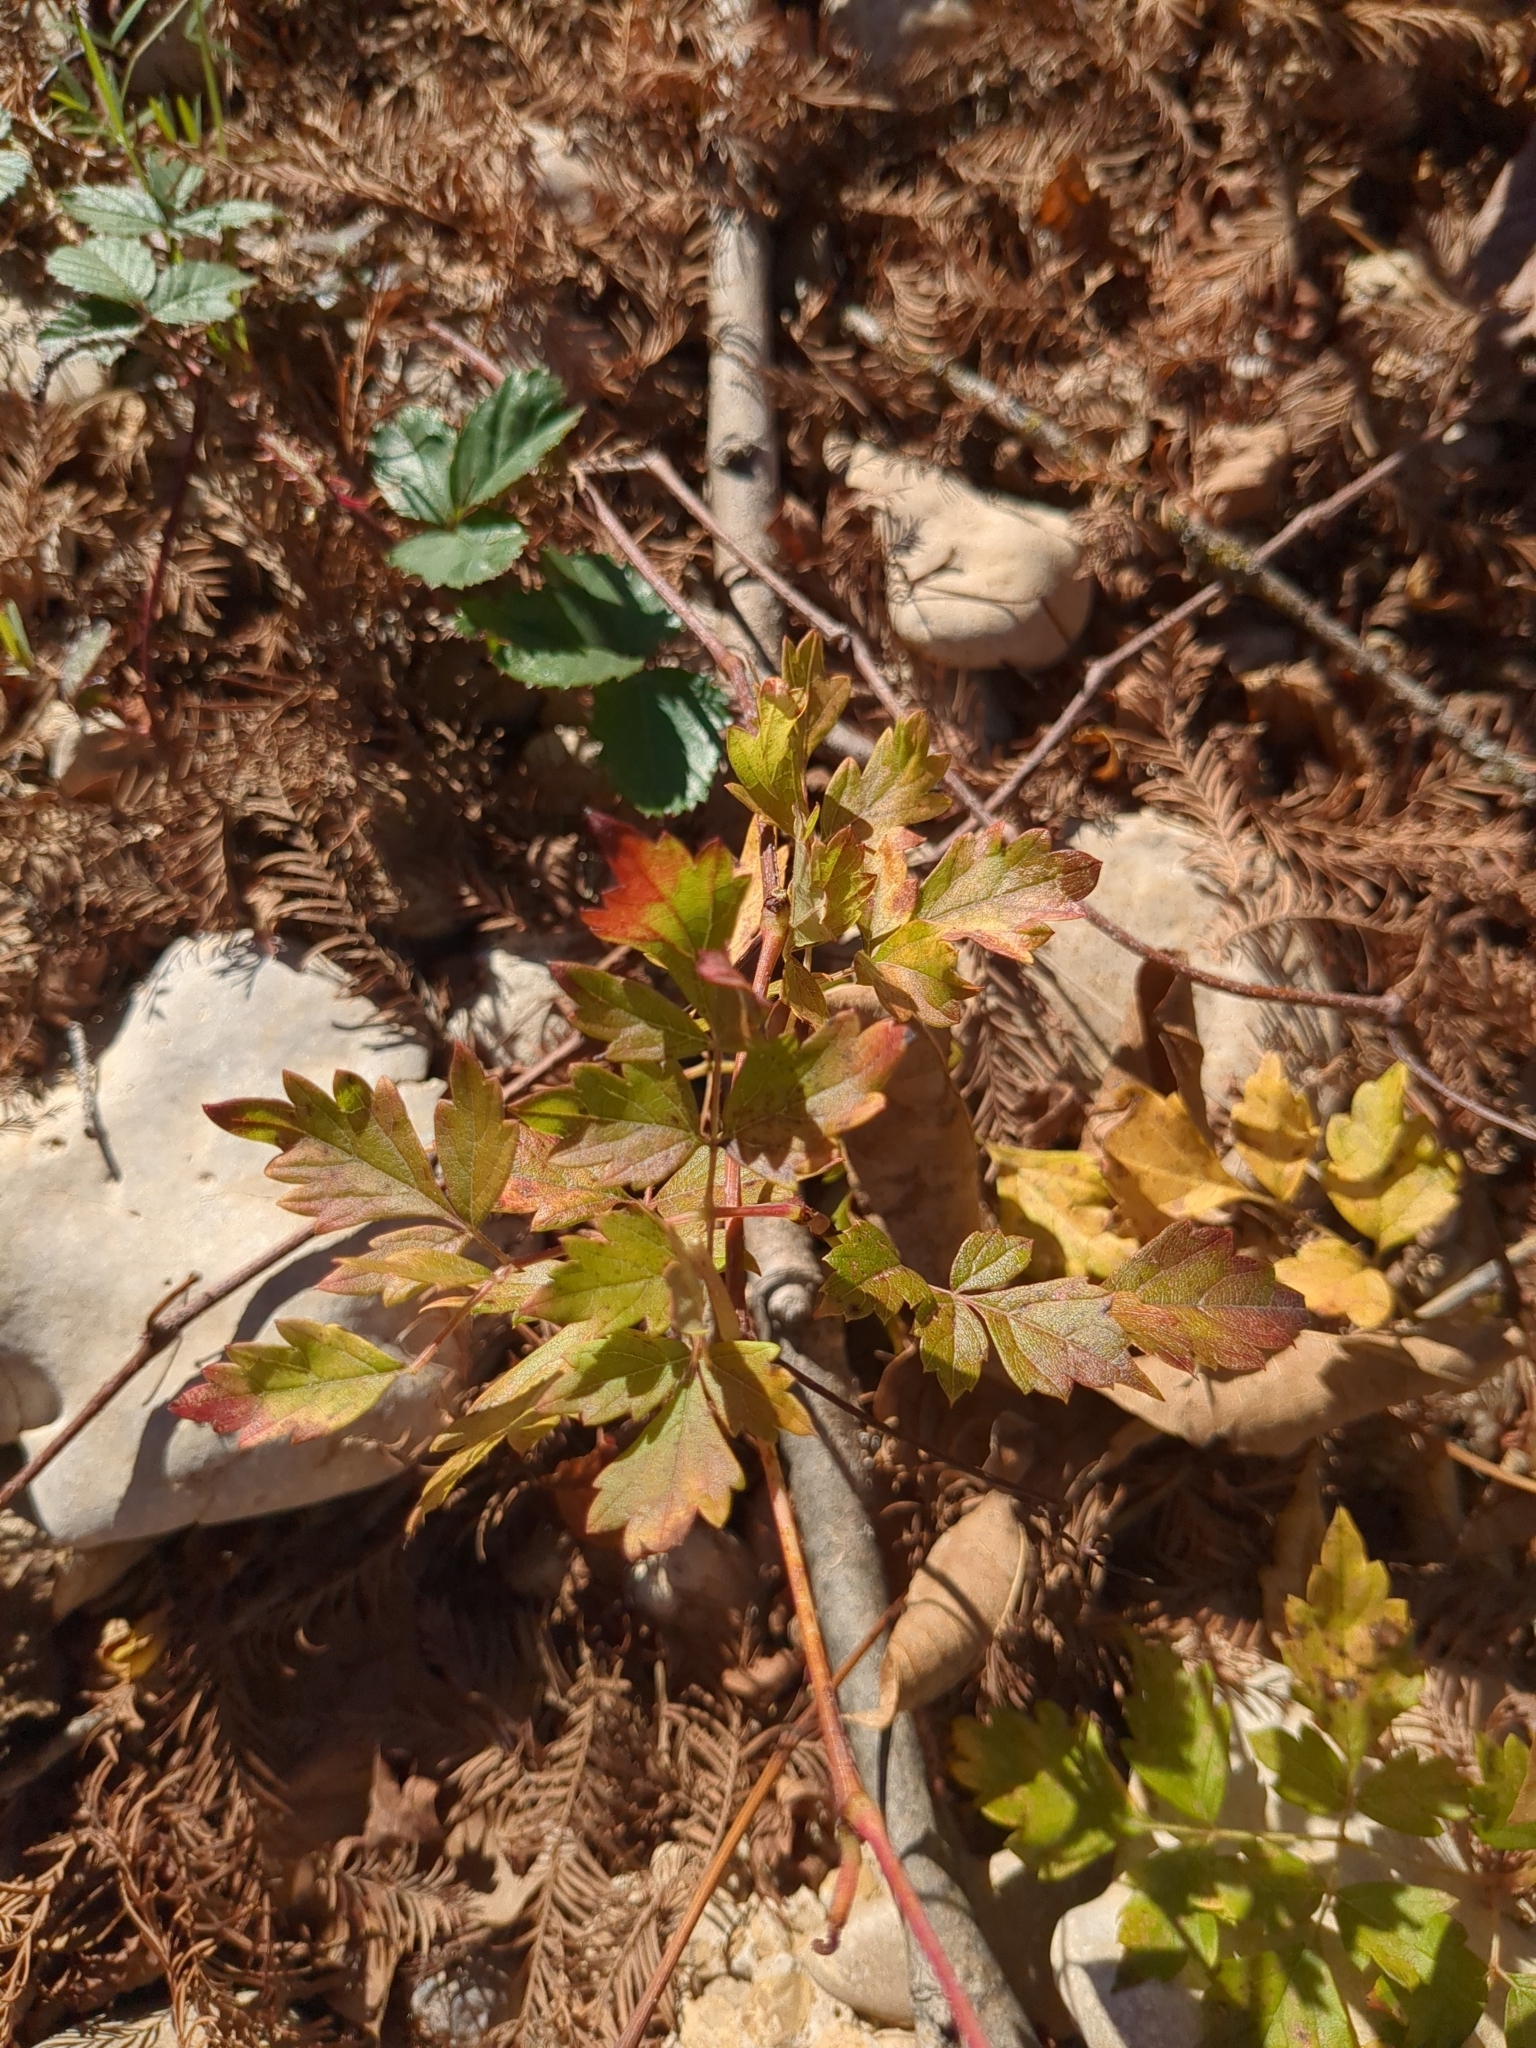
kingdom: Plantae
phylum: Tracheophyta
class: Magnoliopsida
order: Vitales
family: Vitaceae
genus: Nekemias
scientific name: Nekemias arborea
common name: Peppervine
